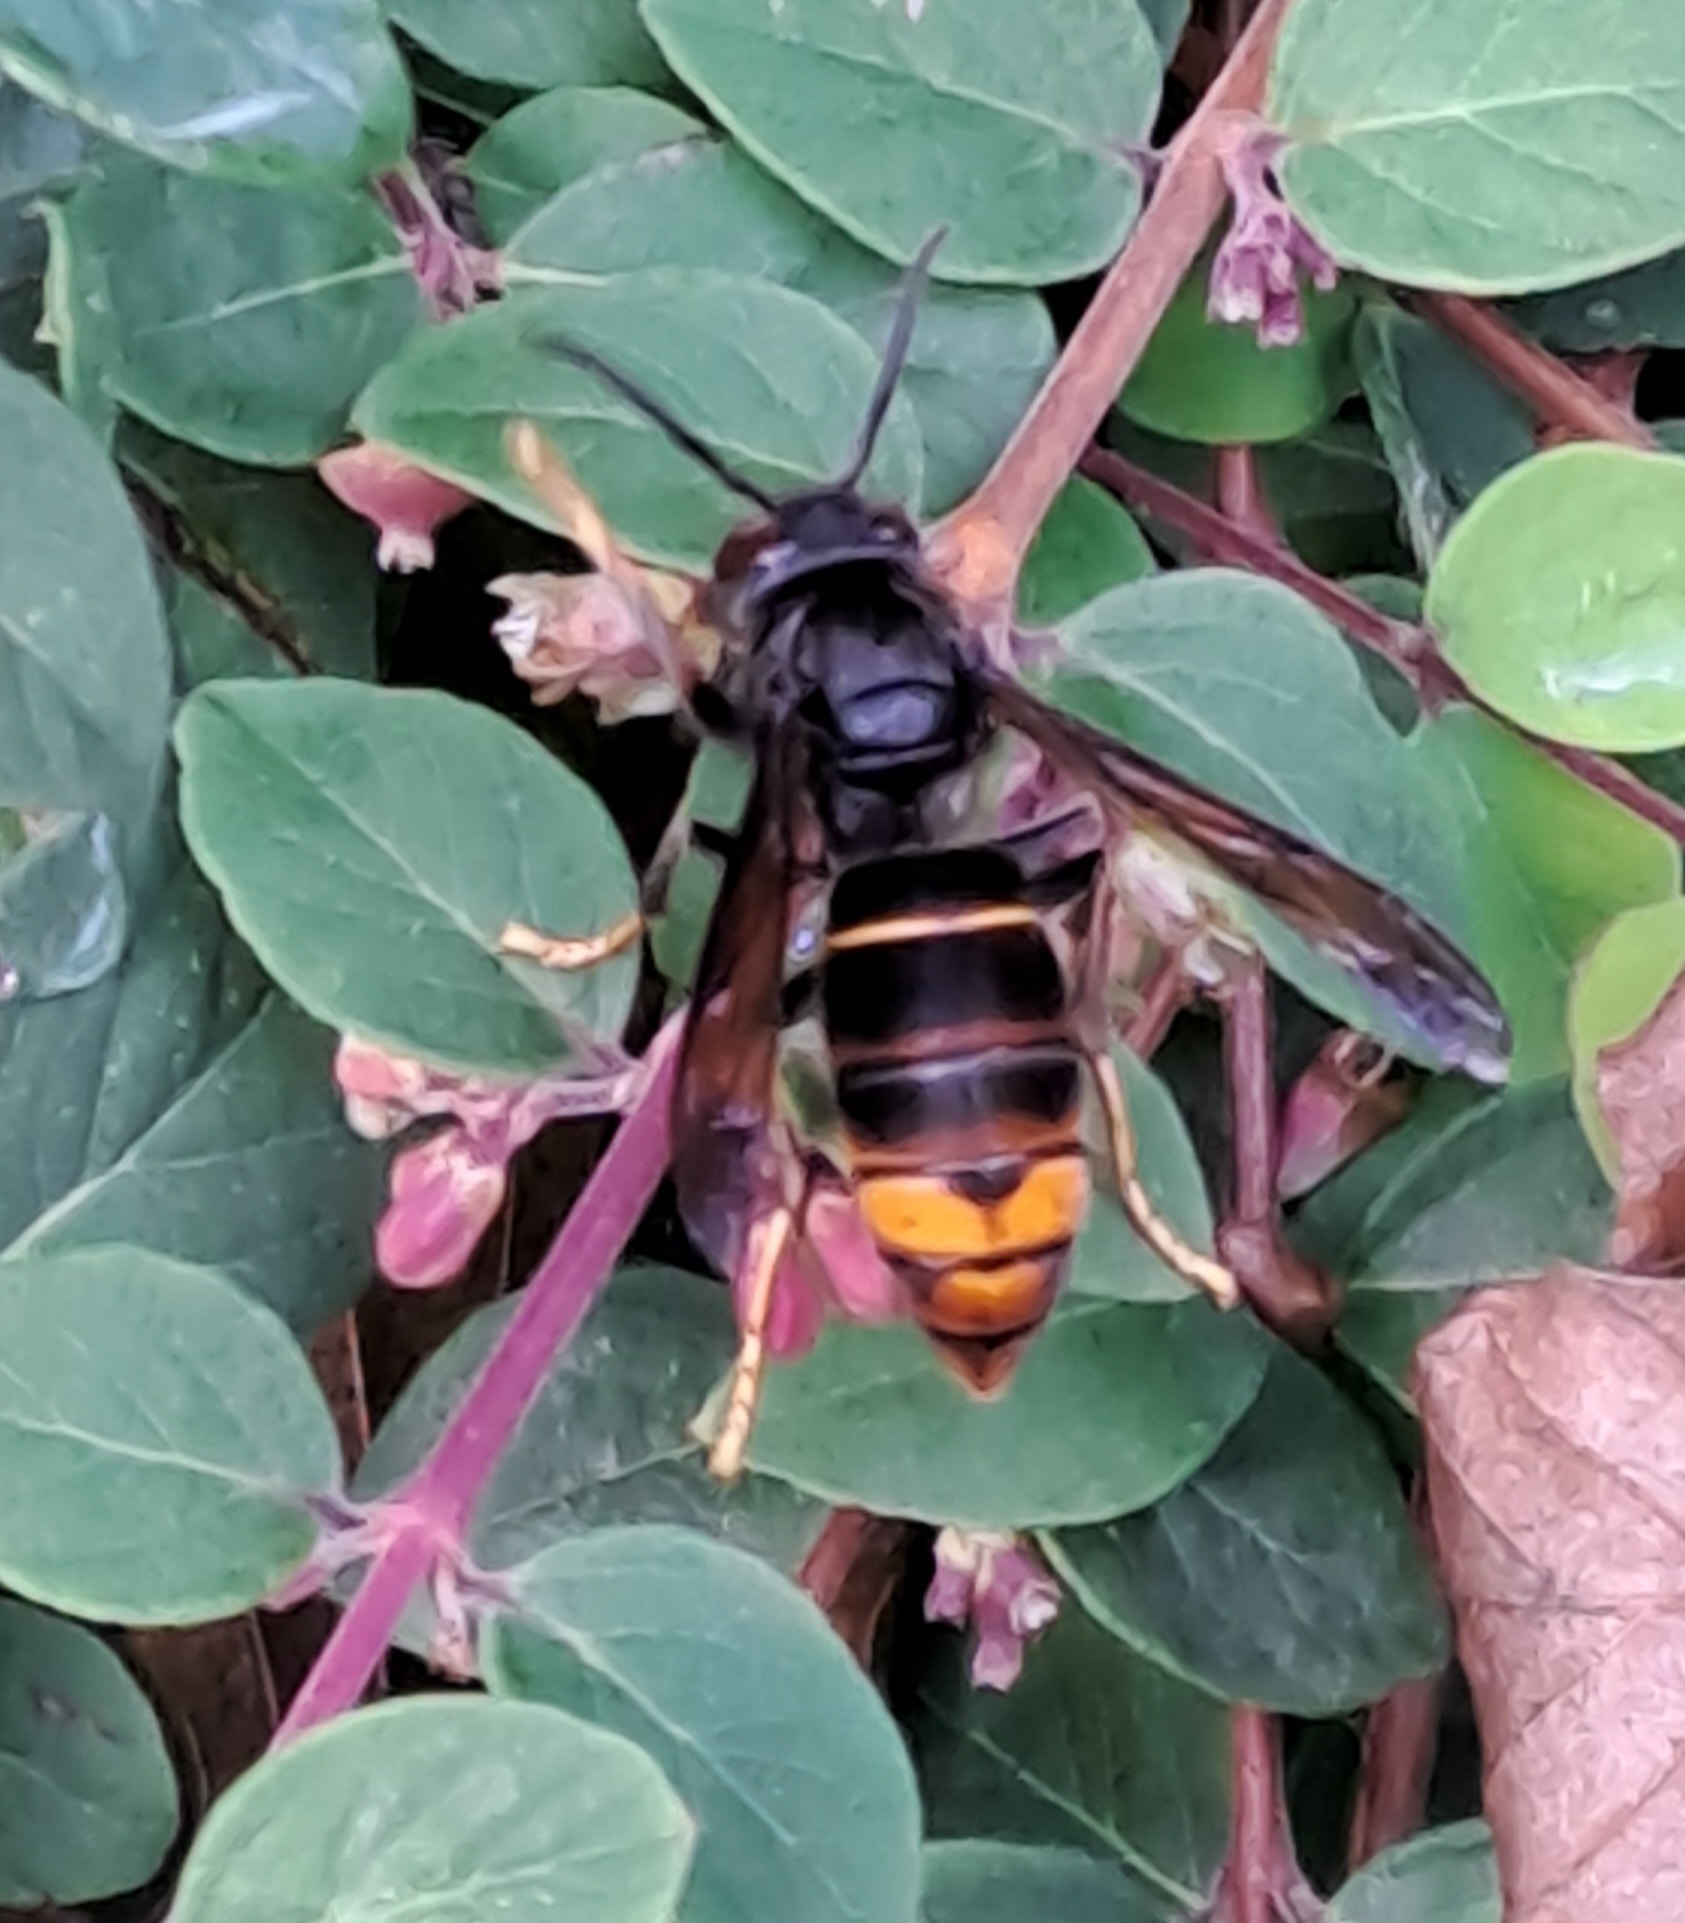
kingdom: Animalia
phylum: Arthropoda
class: Insecta
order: Hymenoptera
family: Vespidae
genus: Vespa
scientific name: Vespa velutina
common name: Asian hornet
